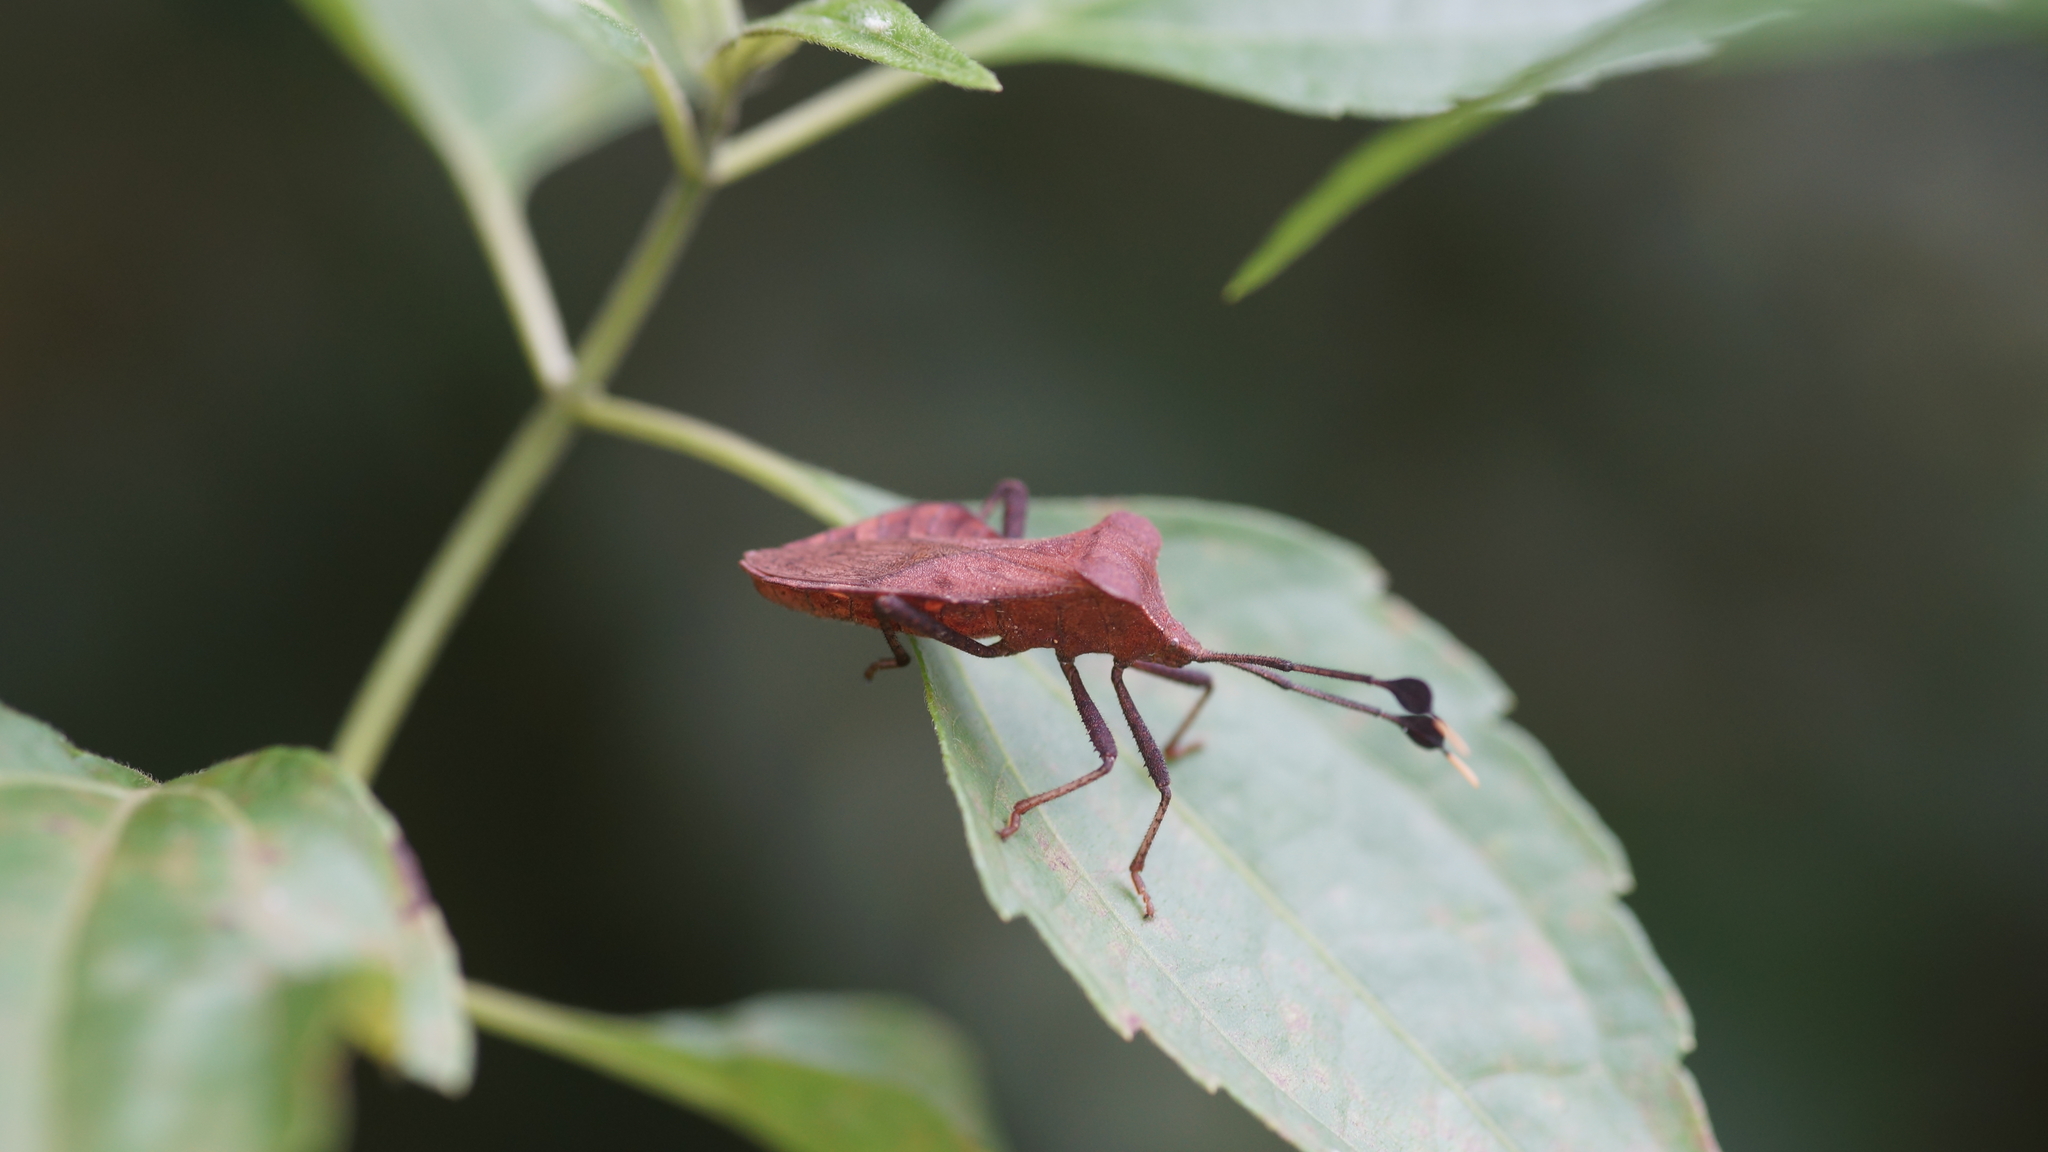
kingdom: Animalia
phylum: Arthropoda
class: Insecta
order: Hemiptera
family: Coreidae
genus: Dalader
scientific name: Dalader planiventris
